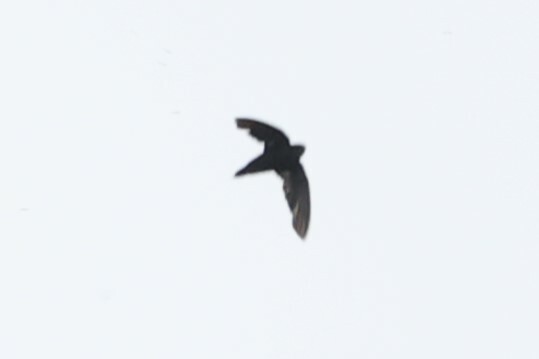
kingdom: Animalia
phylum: Chordata
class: Aves
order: Apodiformes
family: Apodidae
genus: Chaetura
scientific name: Chaetura cinereiventris
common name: Gray-rumped swift
